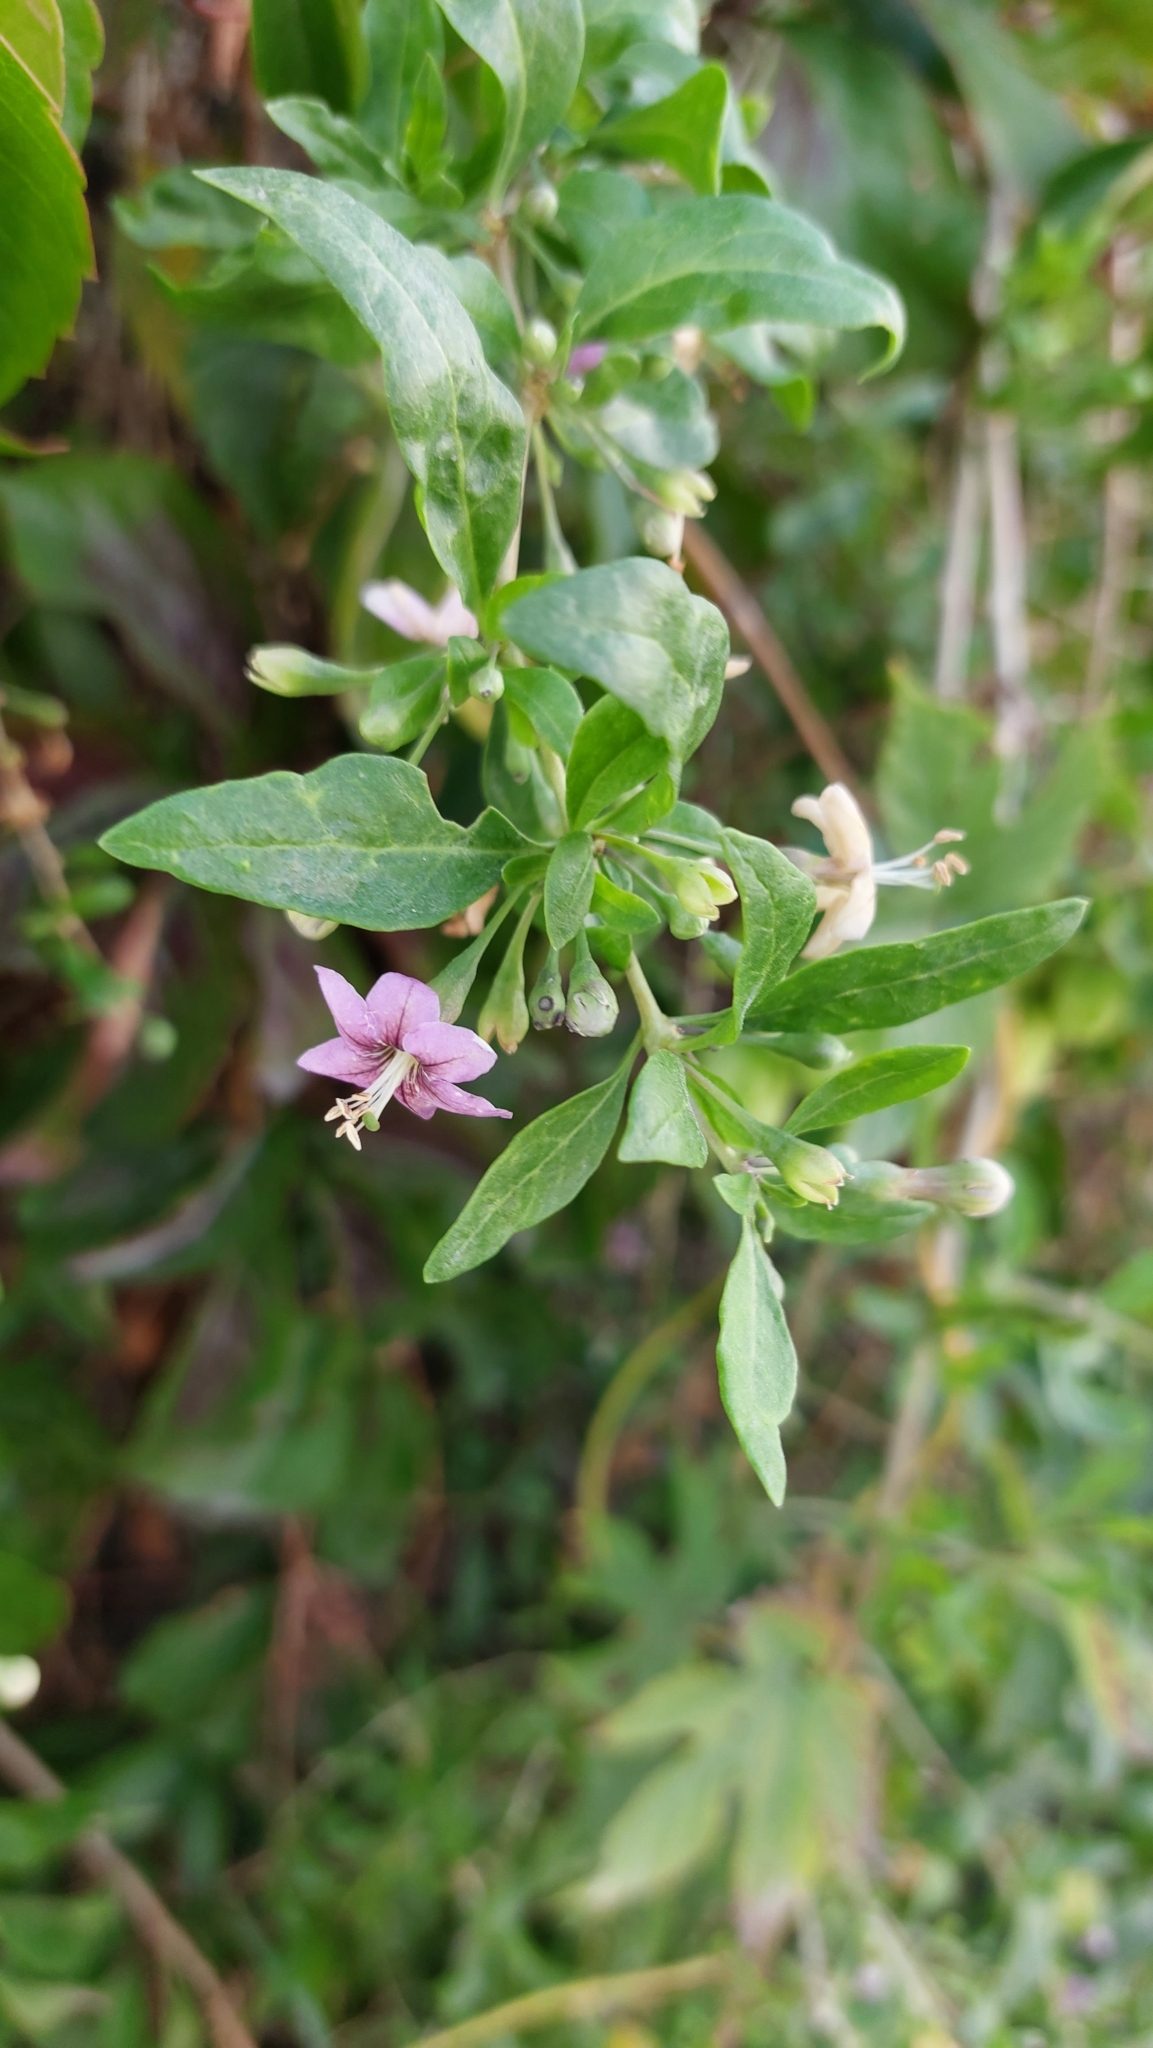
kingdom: Plantae
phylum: Tracheophyta
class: Magnoliopsida
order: Solanales
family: Solanaceae
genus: Lycium
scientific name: Lycium barbarum
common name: Duke of argyll's teaplant
